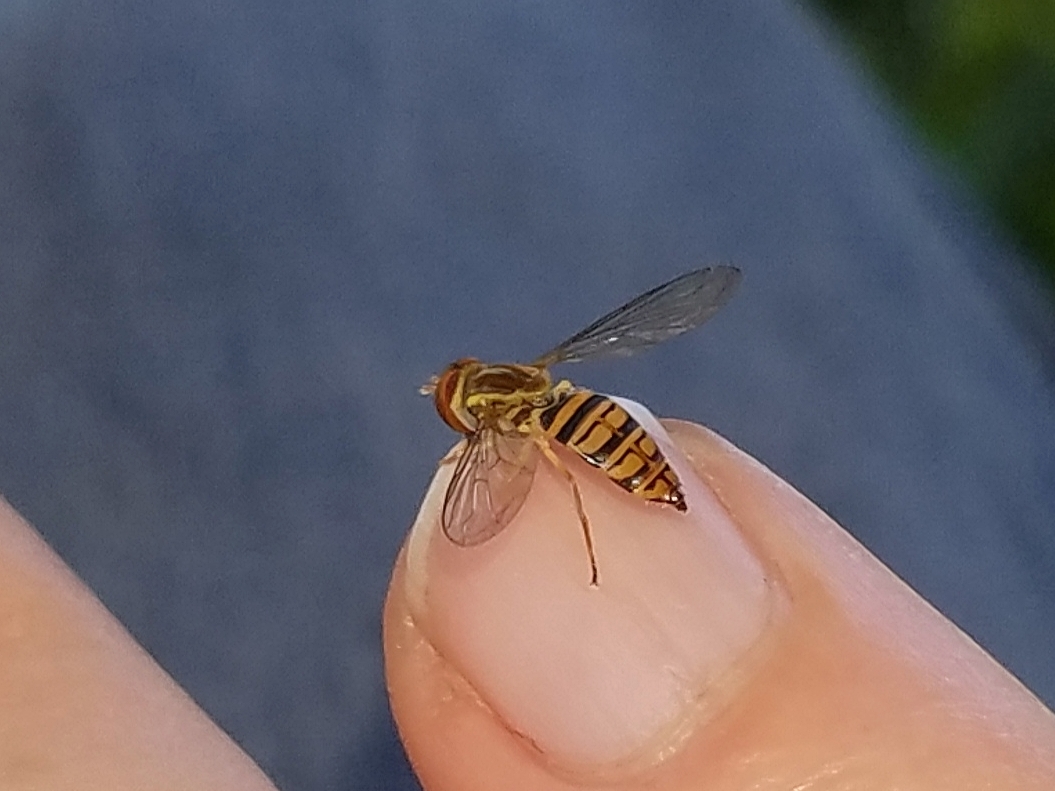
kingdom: Animalia
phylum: Arthropoda
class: Insecta
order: Diptera
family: Syrphidae
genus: Toxomerus
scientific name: Toxomerus politus
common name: Maize calligrapher
